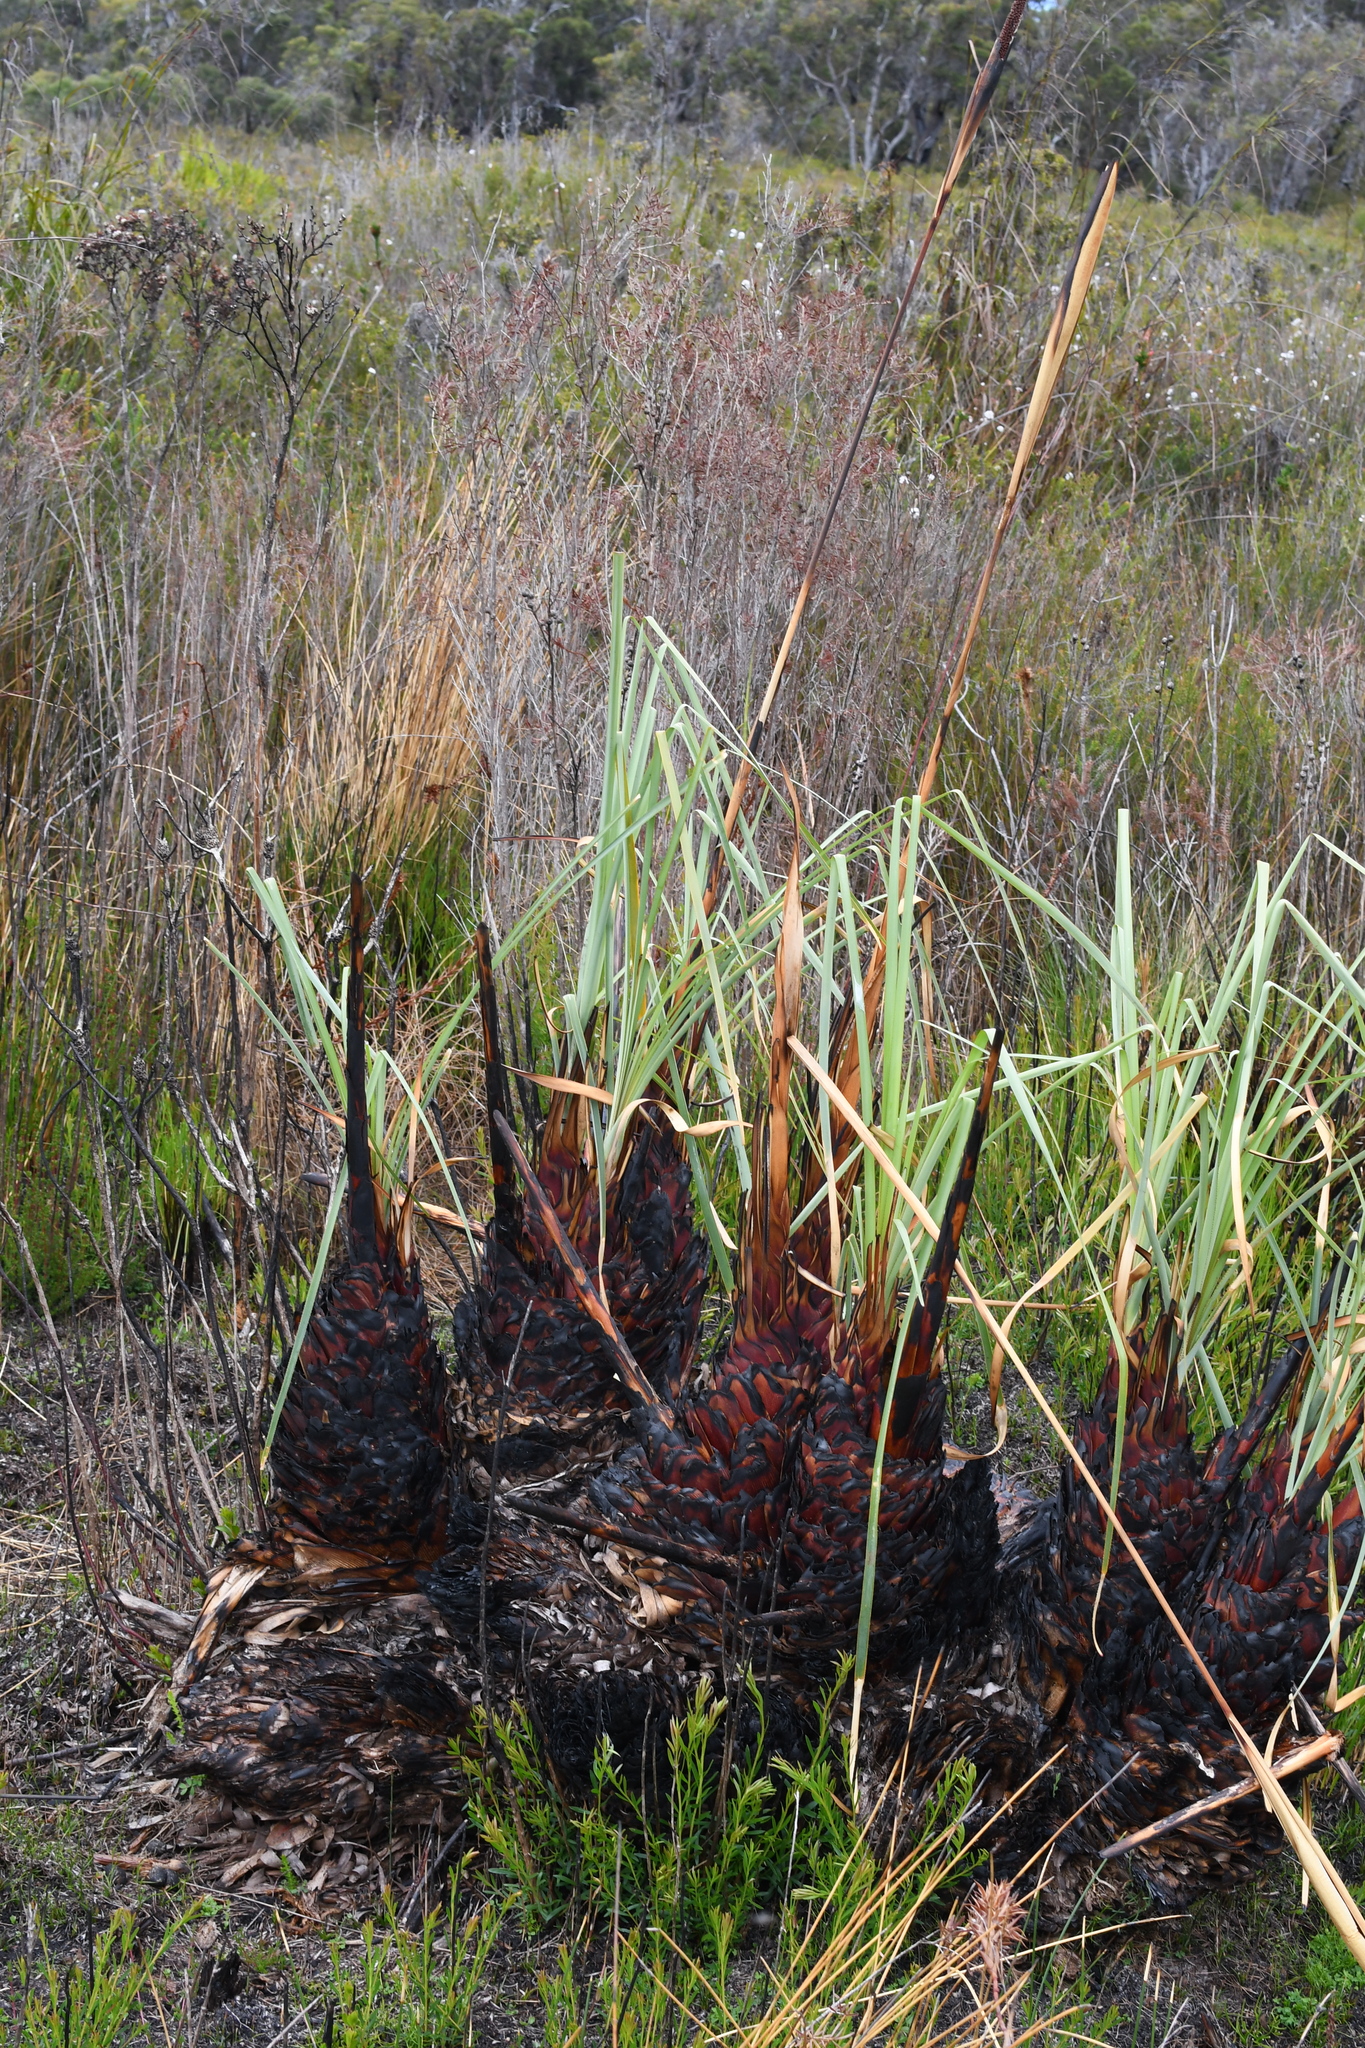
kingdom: Plantae
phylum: Tracheophyta
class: Liliopsida
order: Poales
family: Cyperaceae
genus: Reedia
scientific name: Reedia spathacea
